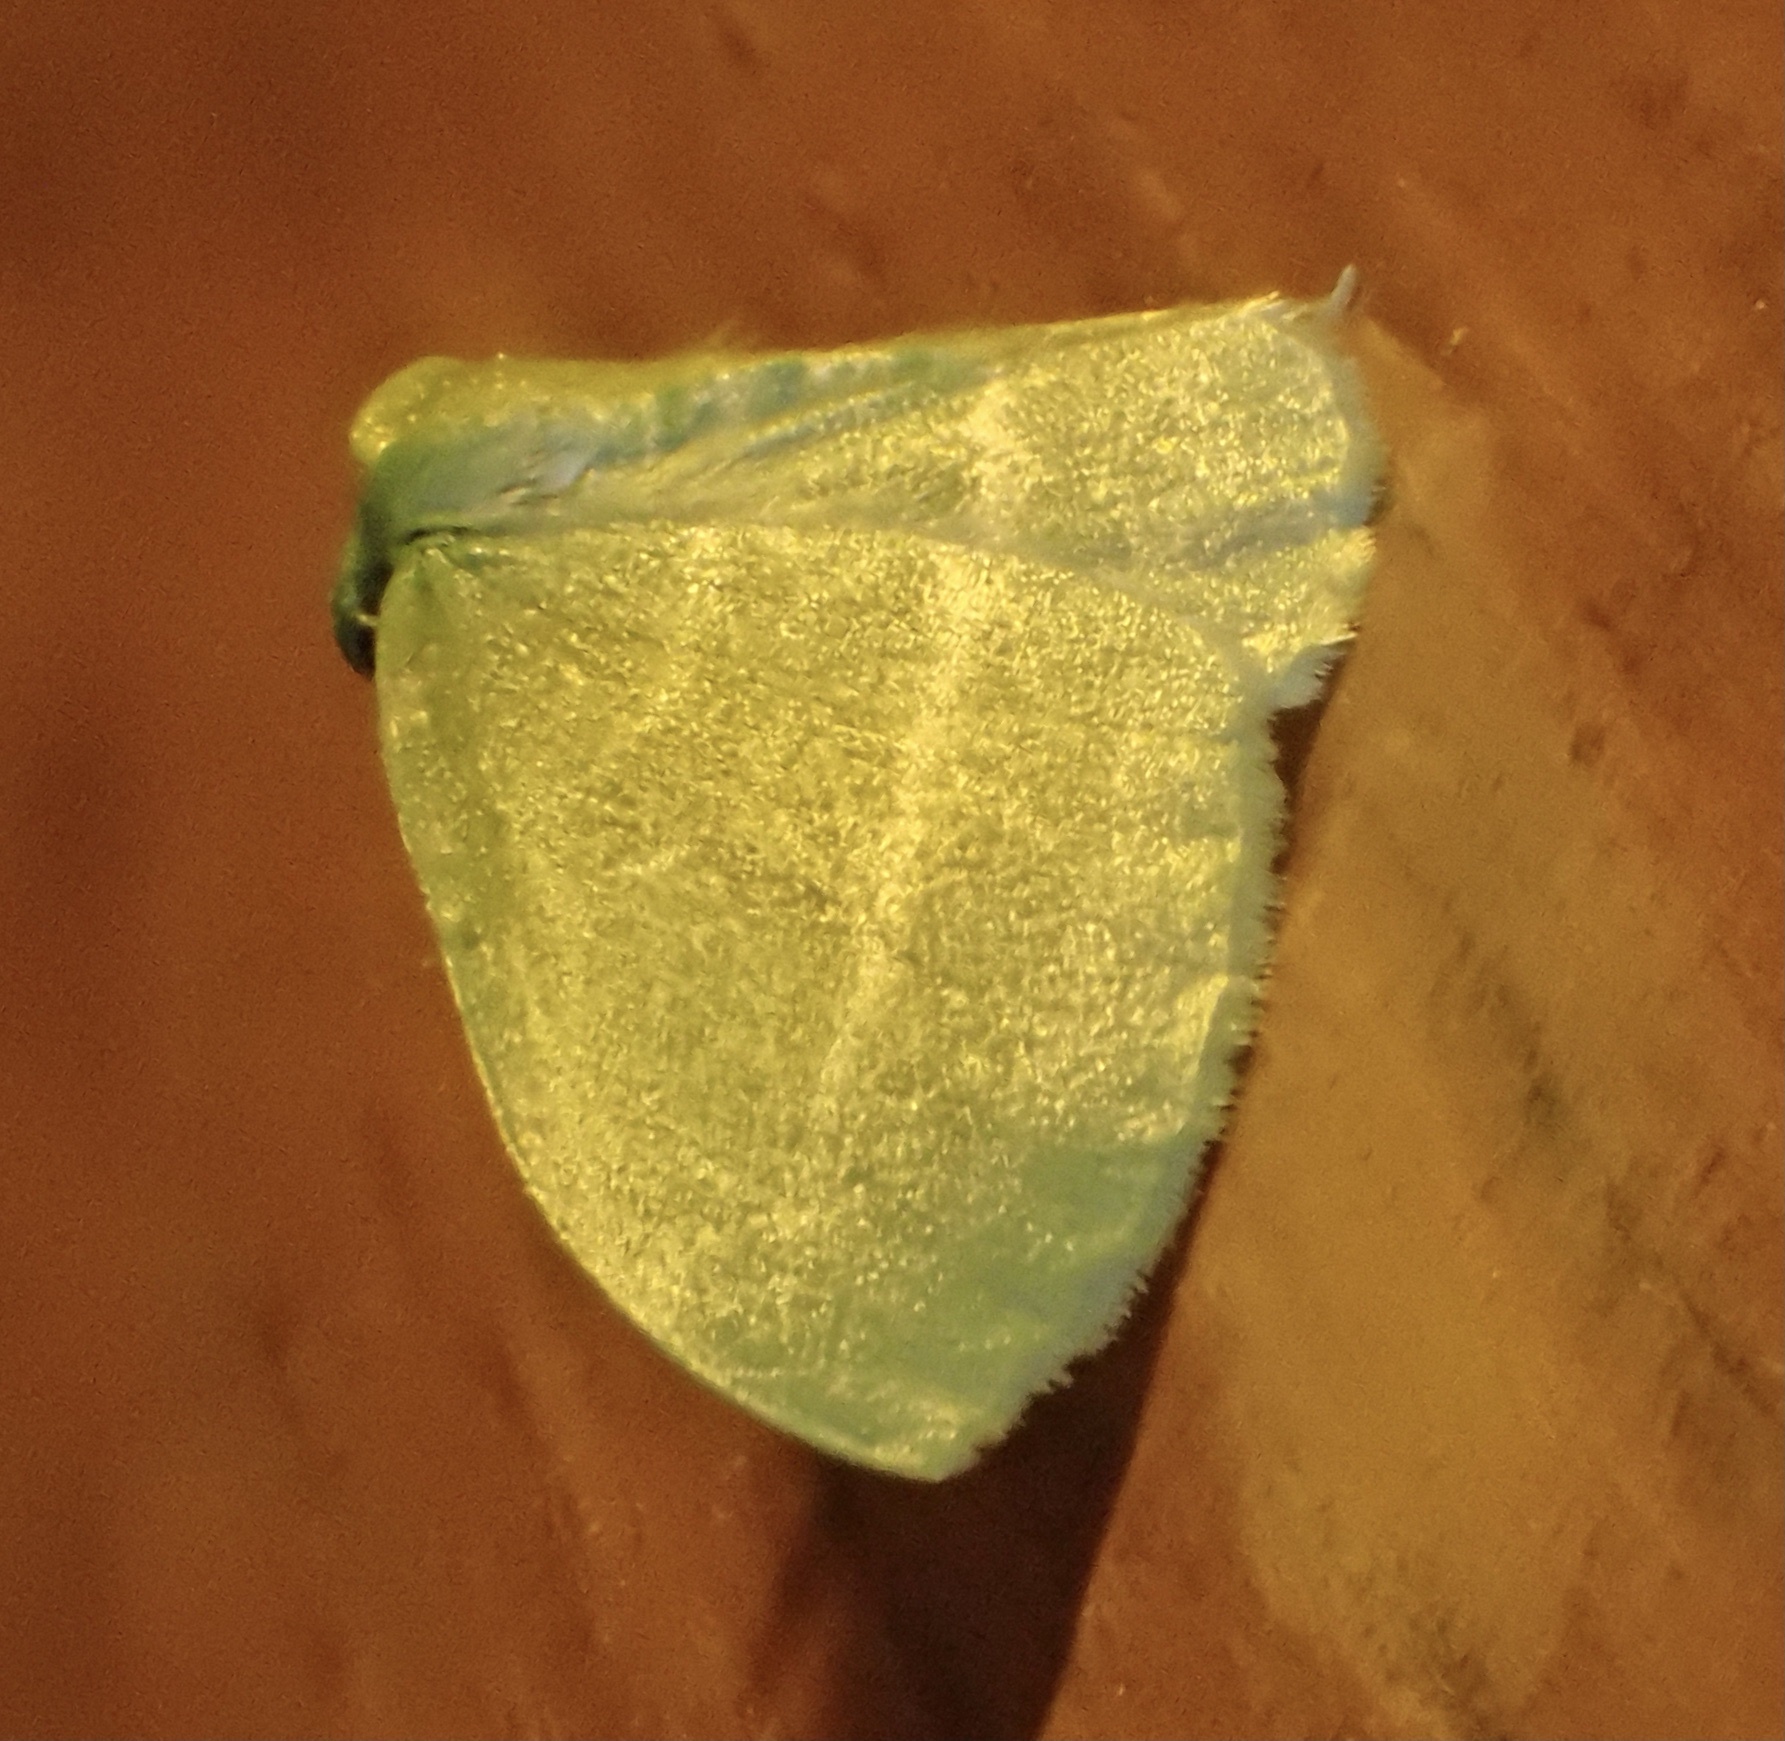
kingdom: Animalia
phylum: Arthropoda
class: Insecta
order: Lepidoptera
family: Geometridae
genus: Dyspteris
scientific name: Dyspteris abortivaria
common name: Bad-wing
